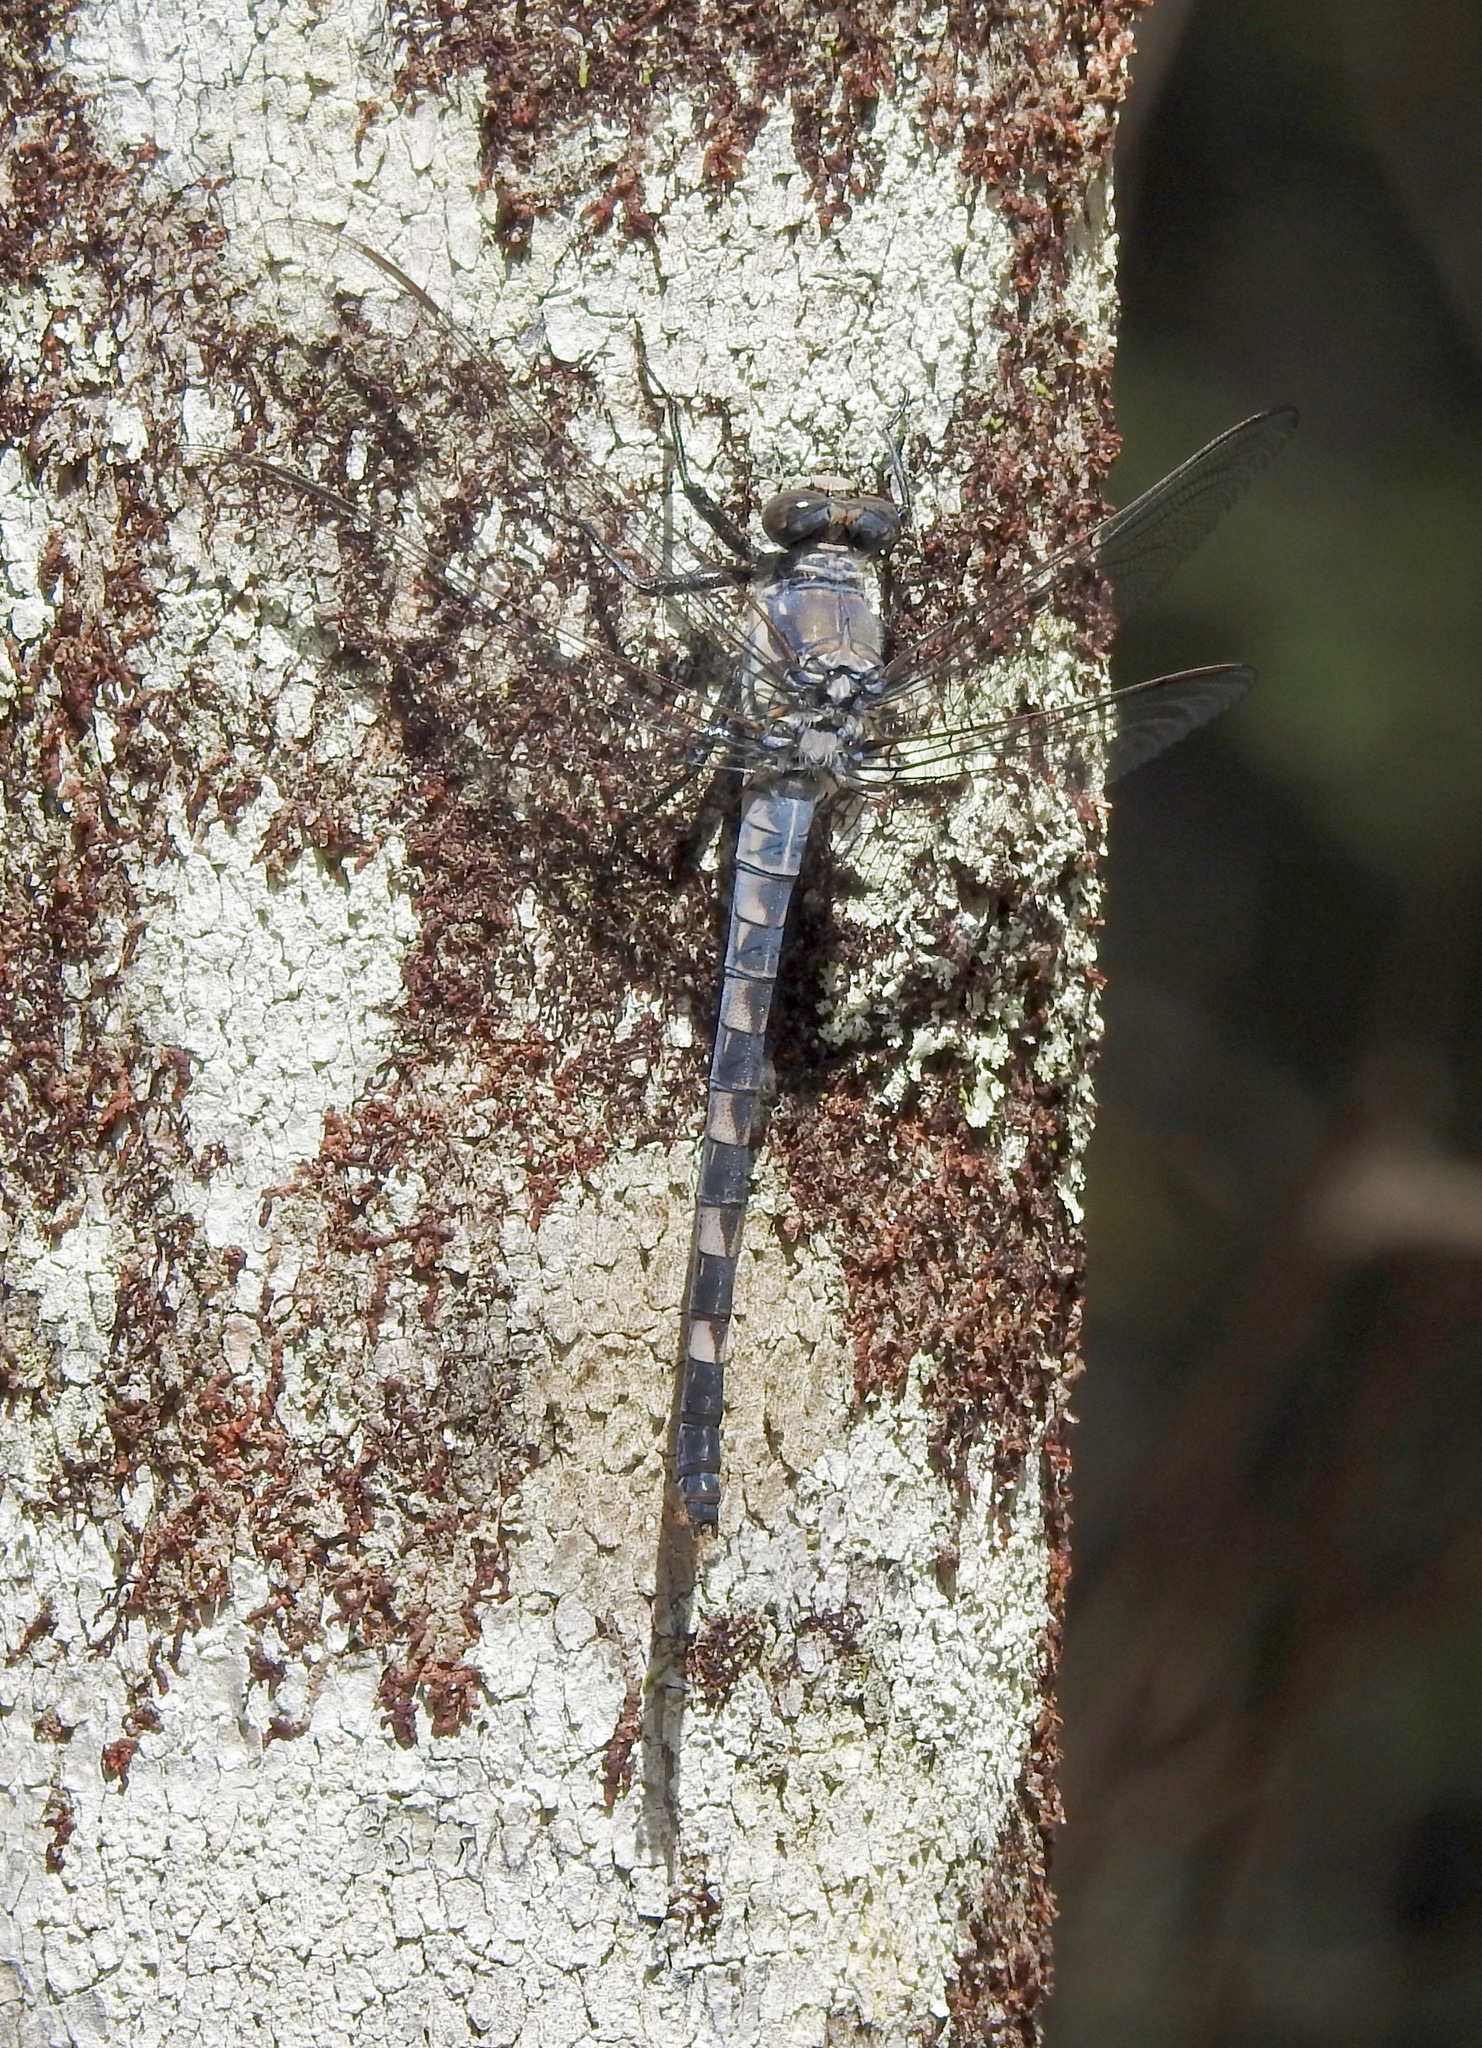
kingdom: Animalia
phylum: Arthropoda
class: Insecta
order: Odonata
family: Petaluridae
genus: Tachopteryx
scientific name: Tachopteryx thoreyi
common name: Gray petaltail
